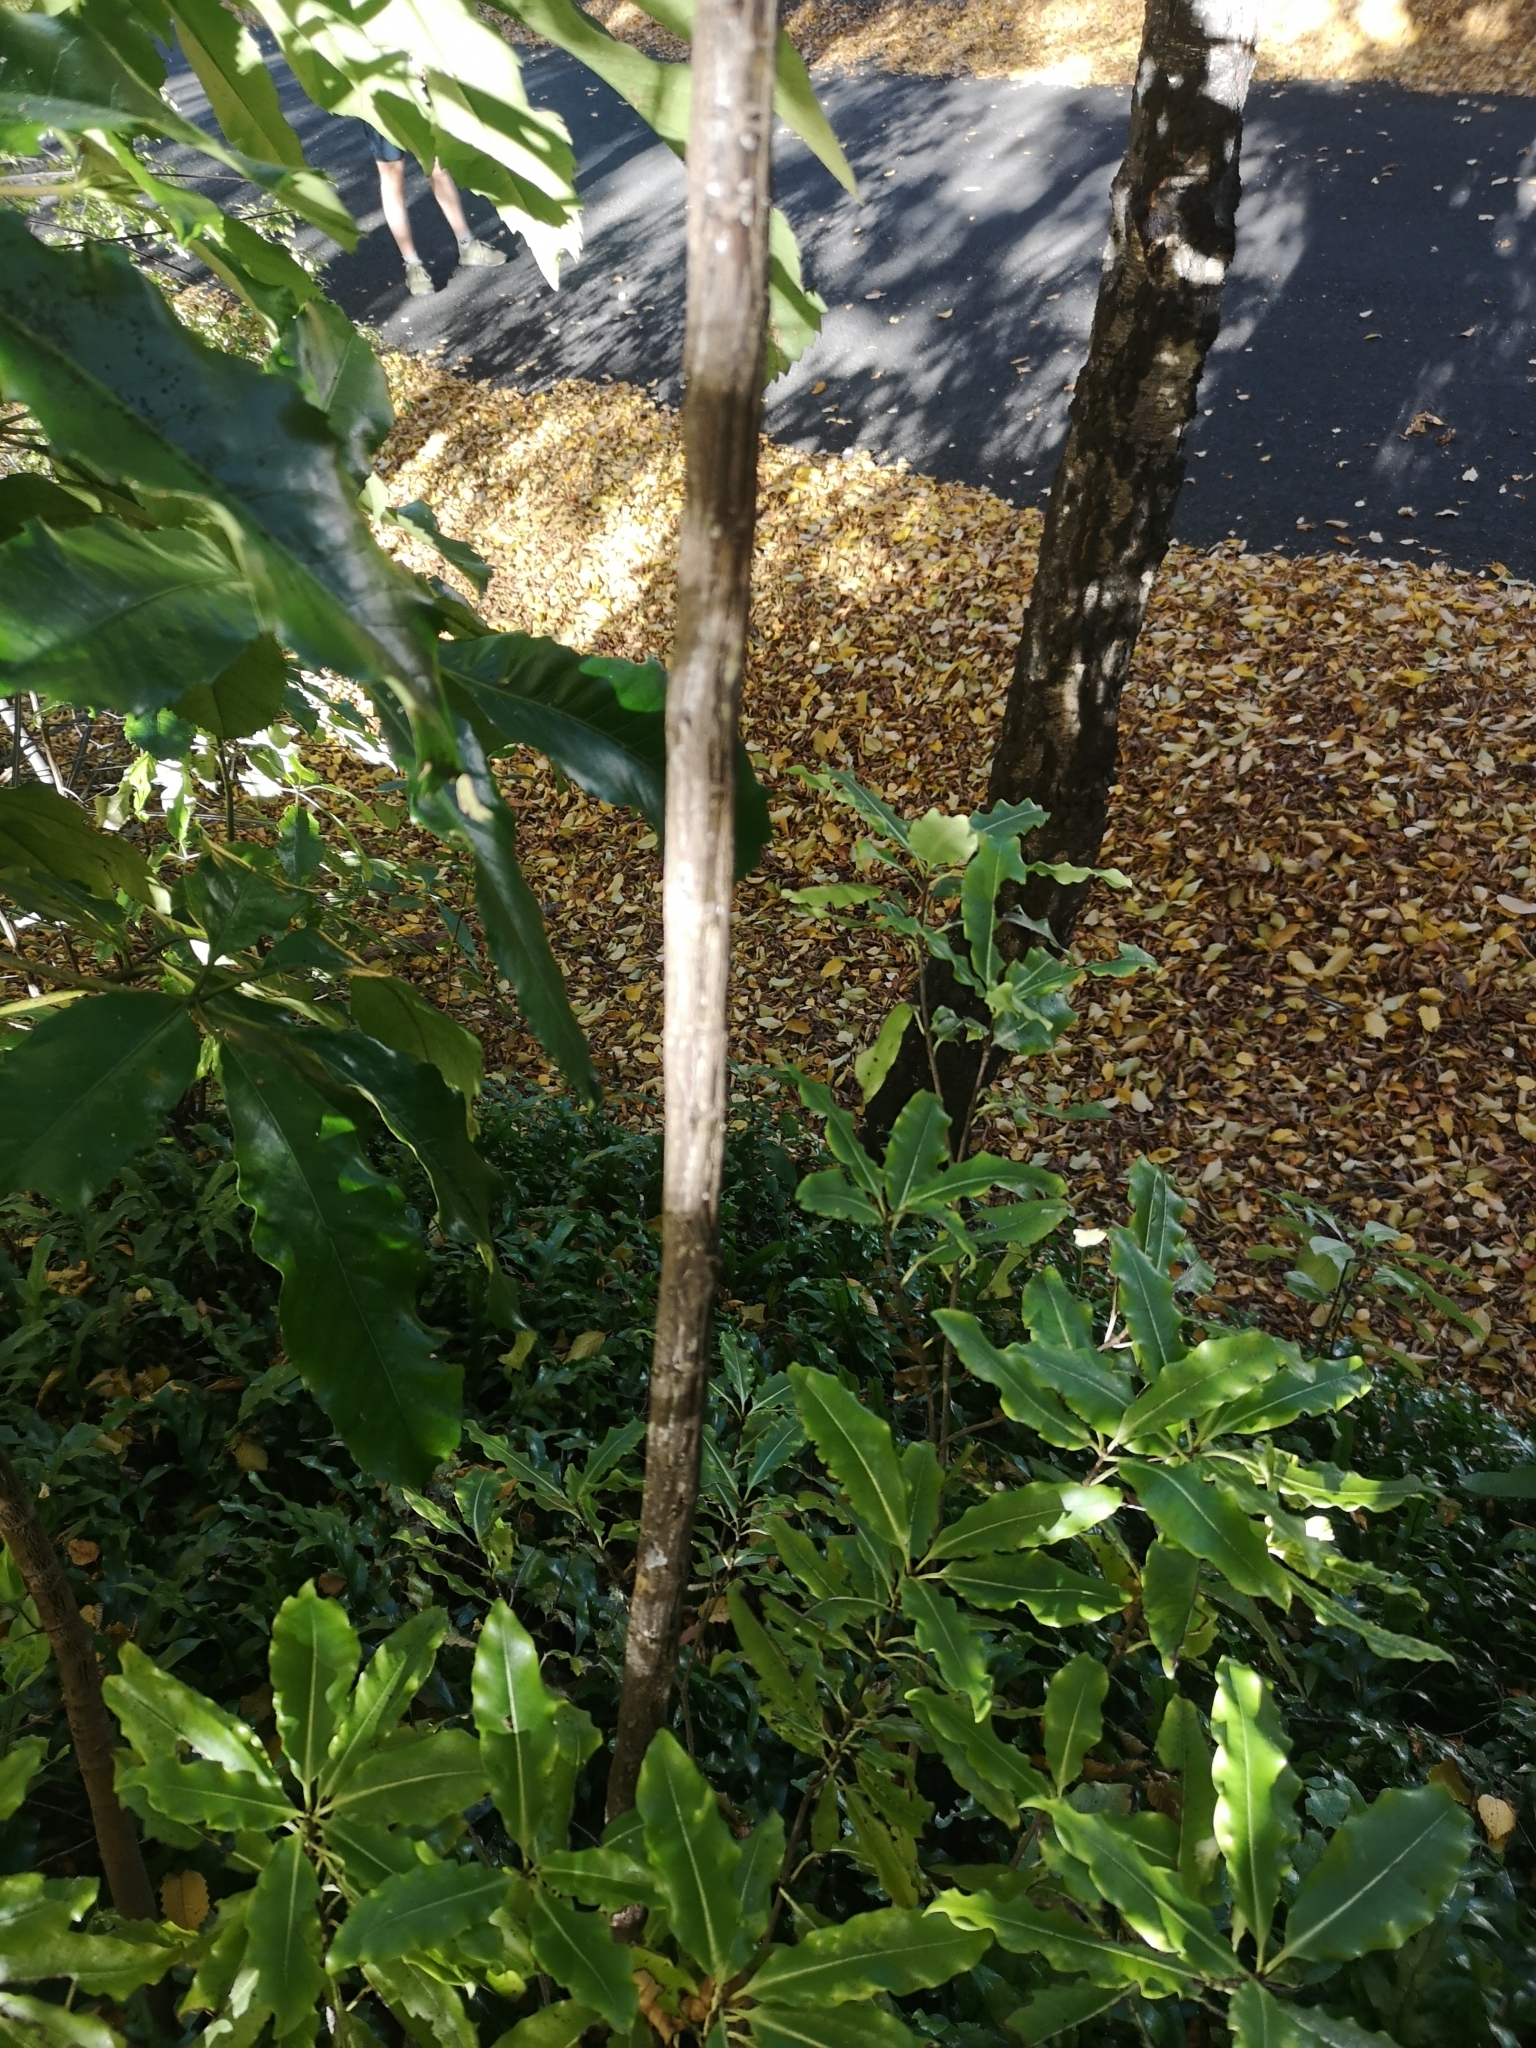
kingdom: Plantae
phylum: Tracheophyta
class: Magnoliopsida
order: Apiales
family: Araliaceae
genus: Pseudopanax
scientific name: Pseudopanax crassifolius
